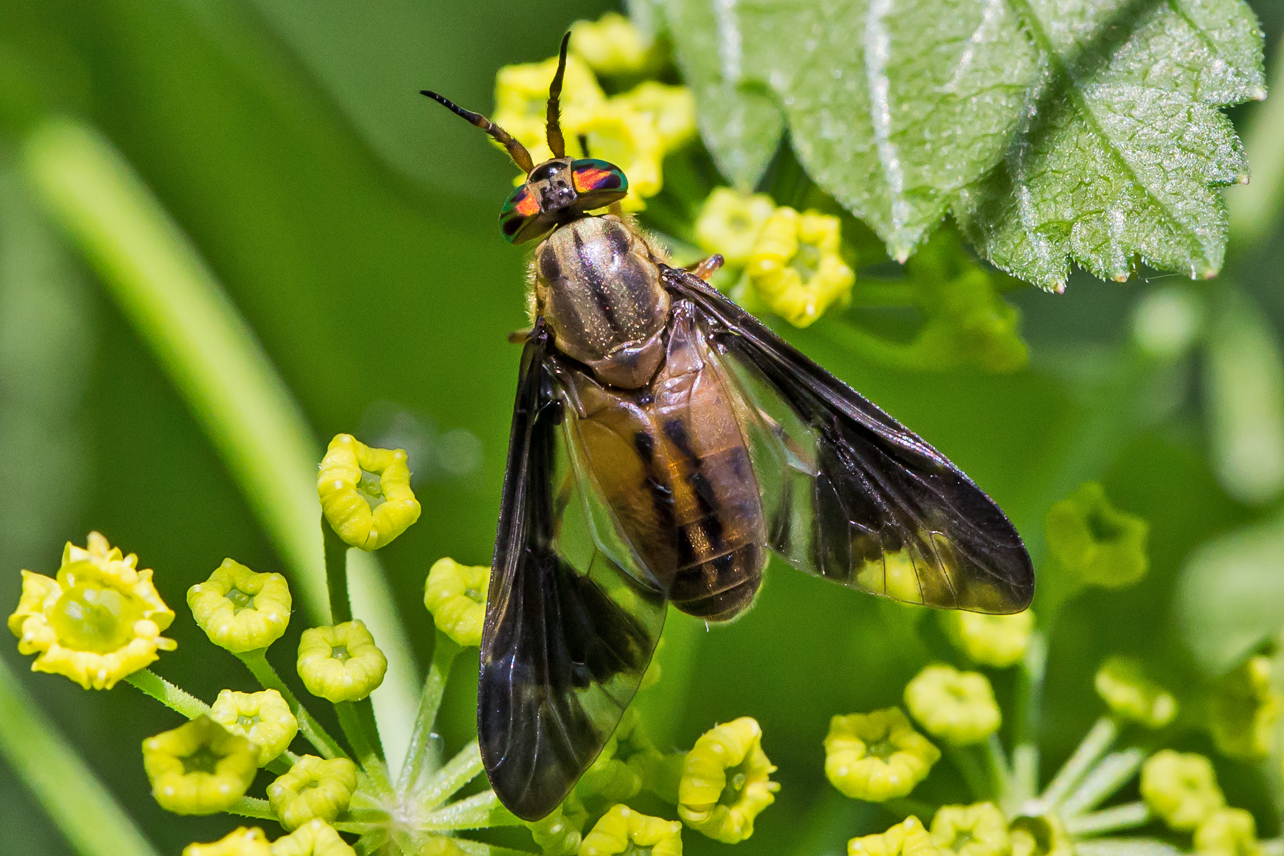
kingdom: Animalia
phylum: Arthropoda
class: Insecta
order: Diptera
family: Tabanidae
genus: Chrysops
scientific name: Chrysops moechus
